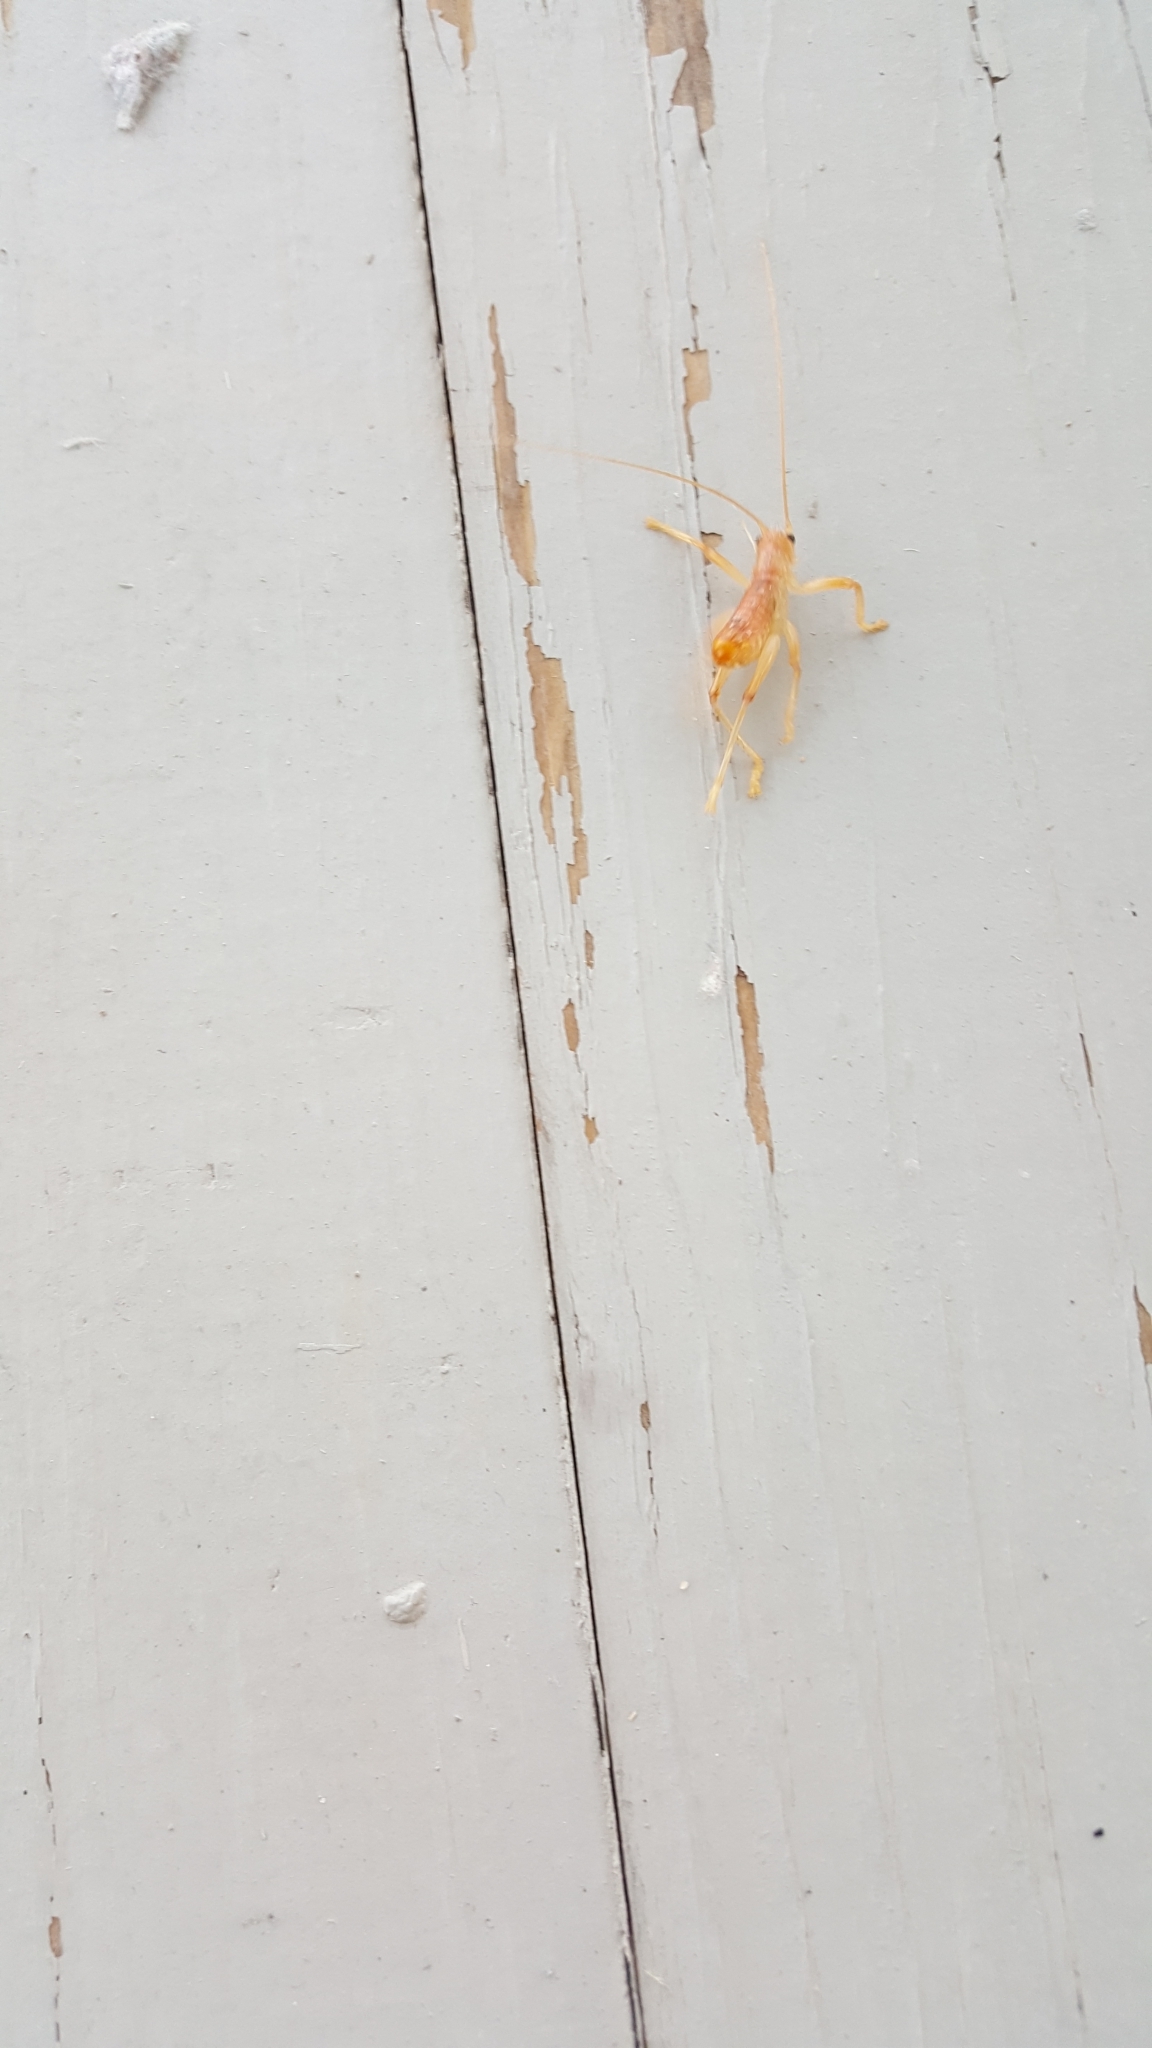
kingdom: Animalia
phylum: Arthropoda
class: Insecta
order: Orthoptera
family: Gryllacrididae
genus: Camptonotus
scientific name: Camptonotus carolinensis
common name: Carolina leaf-roller
